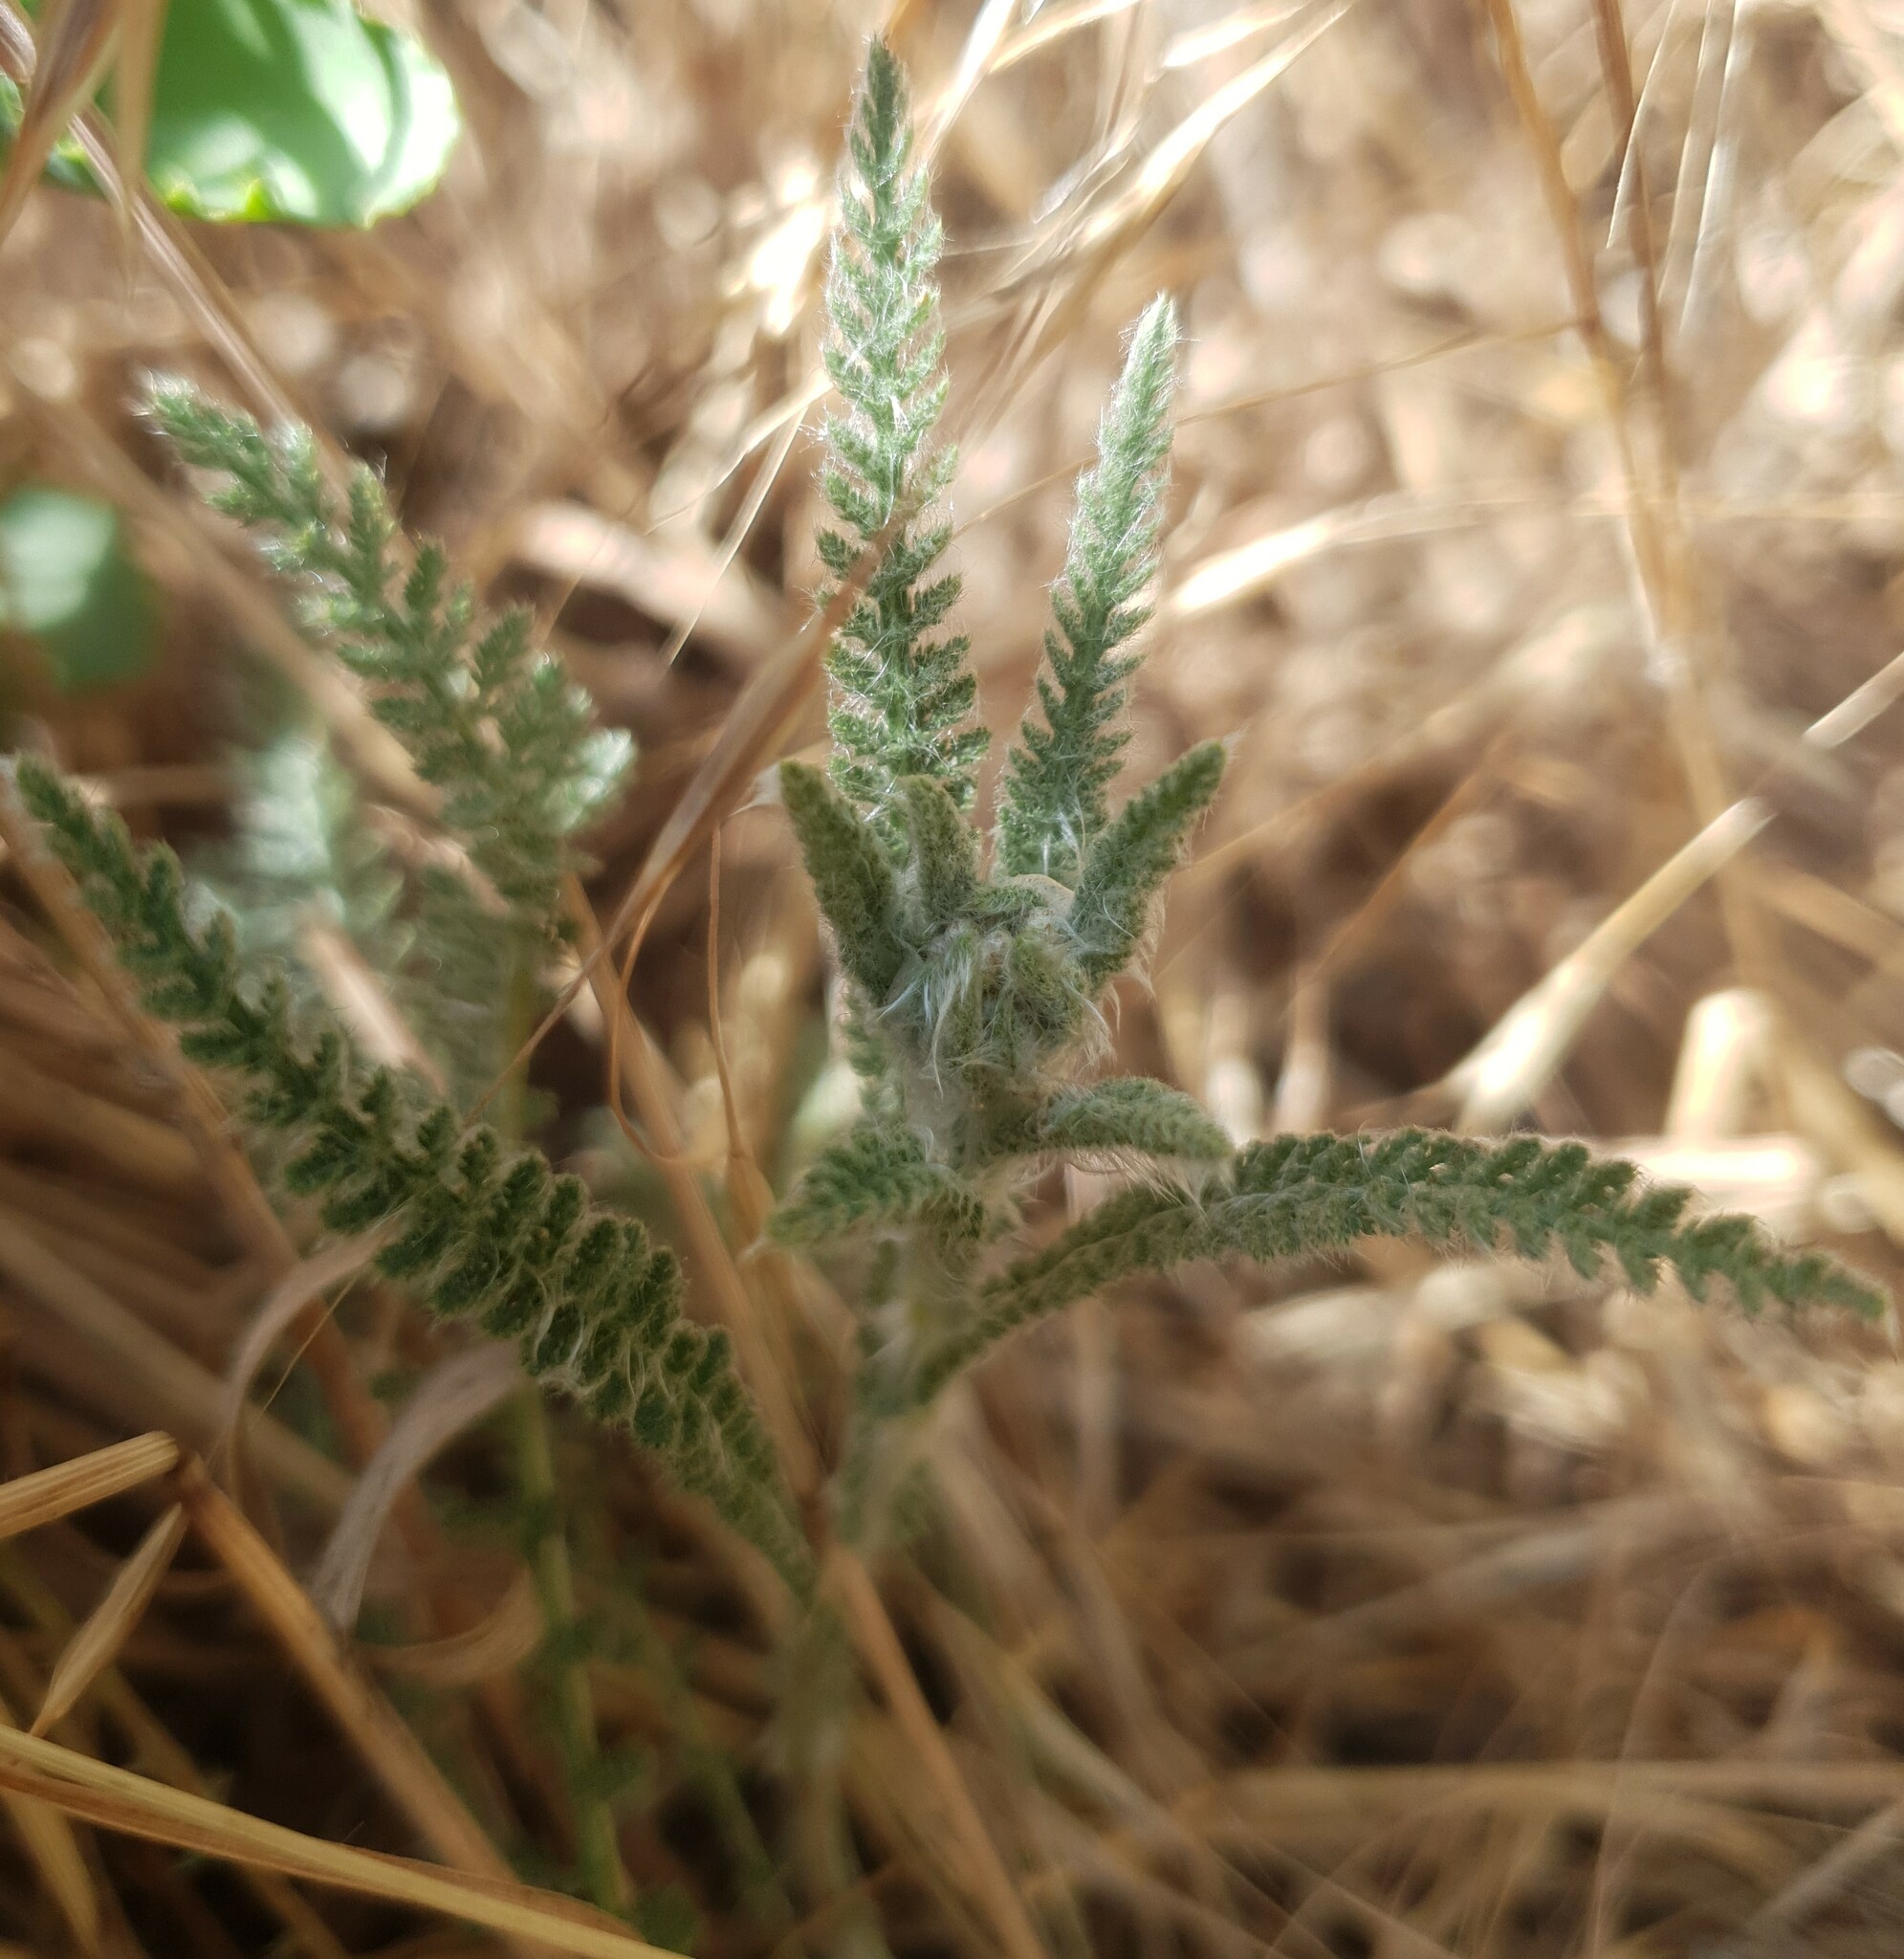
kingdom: Plantae
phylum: Tracheophyta
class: Magnoliopsida
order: Asterales
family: Asteraceae
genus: Achillea
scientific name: Achillea pannonica
